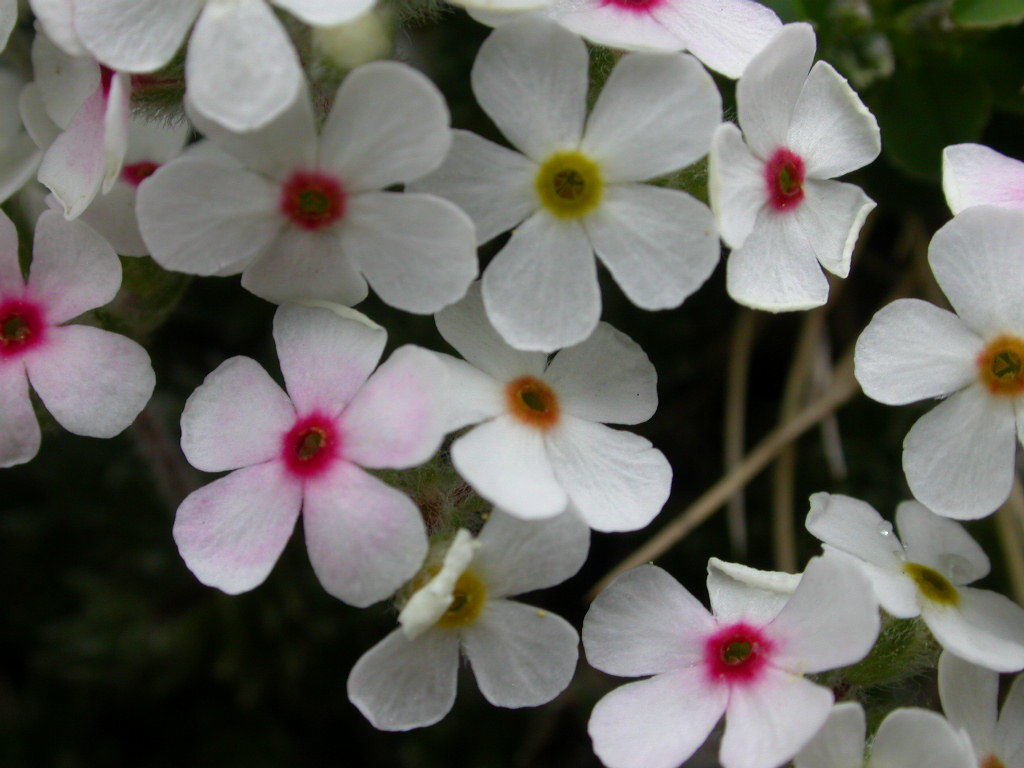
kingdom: Plantae
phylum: Tracheophyta
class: Magnoliopsida
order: Ericales
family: Primulaceae
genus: Androsace
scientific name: Androsace villosa
